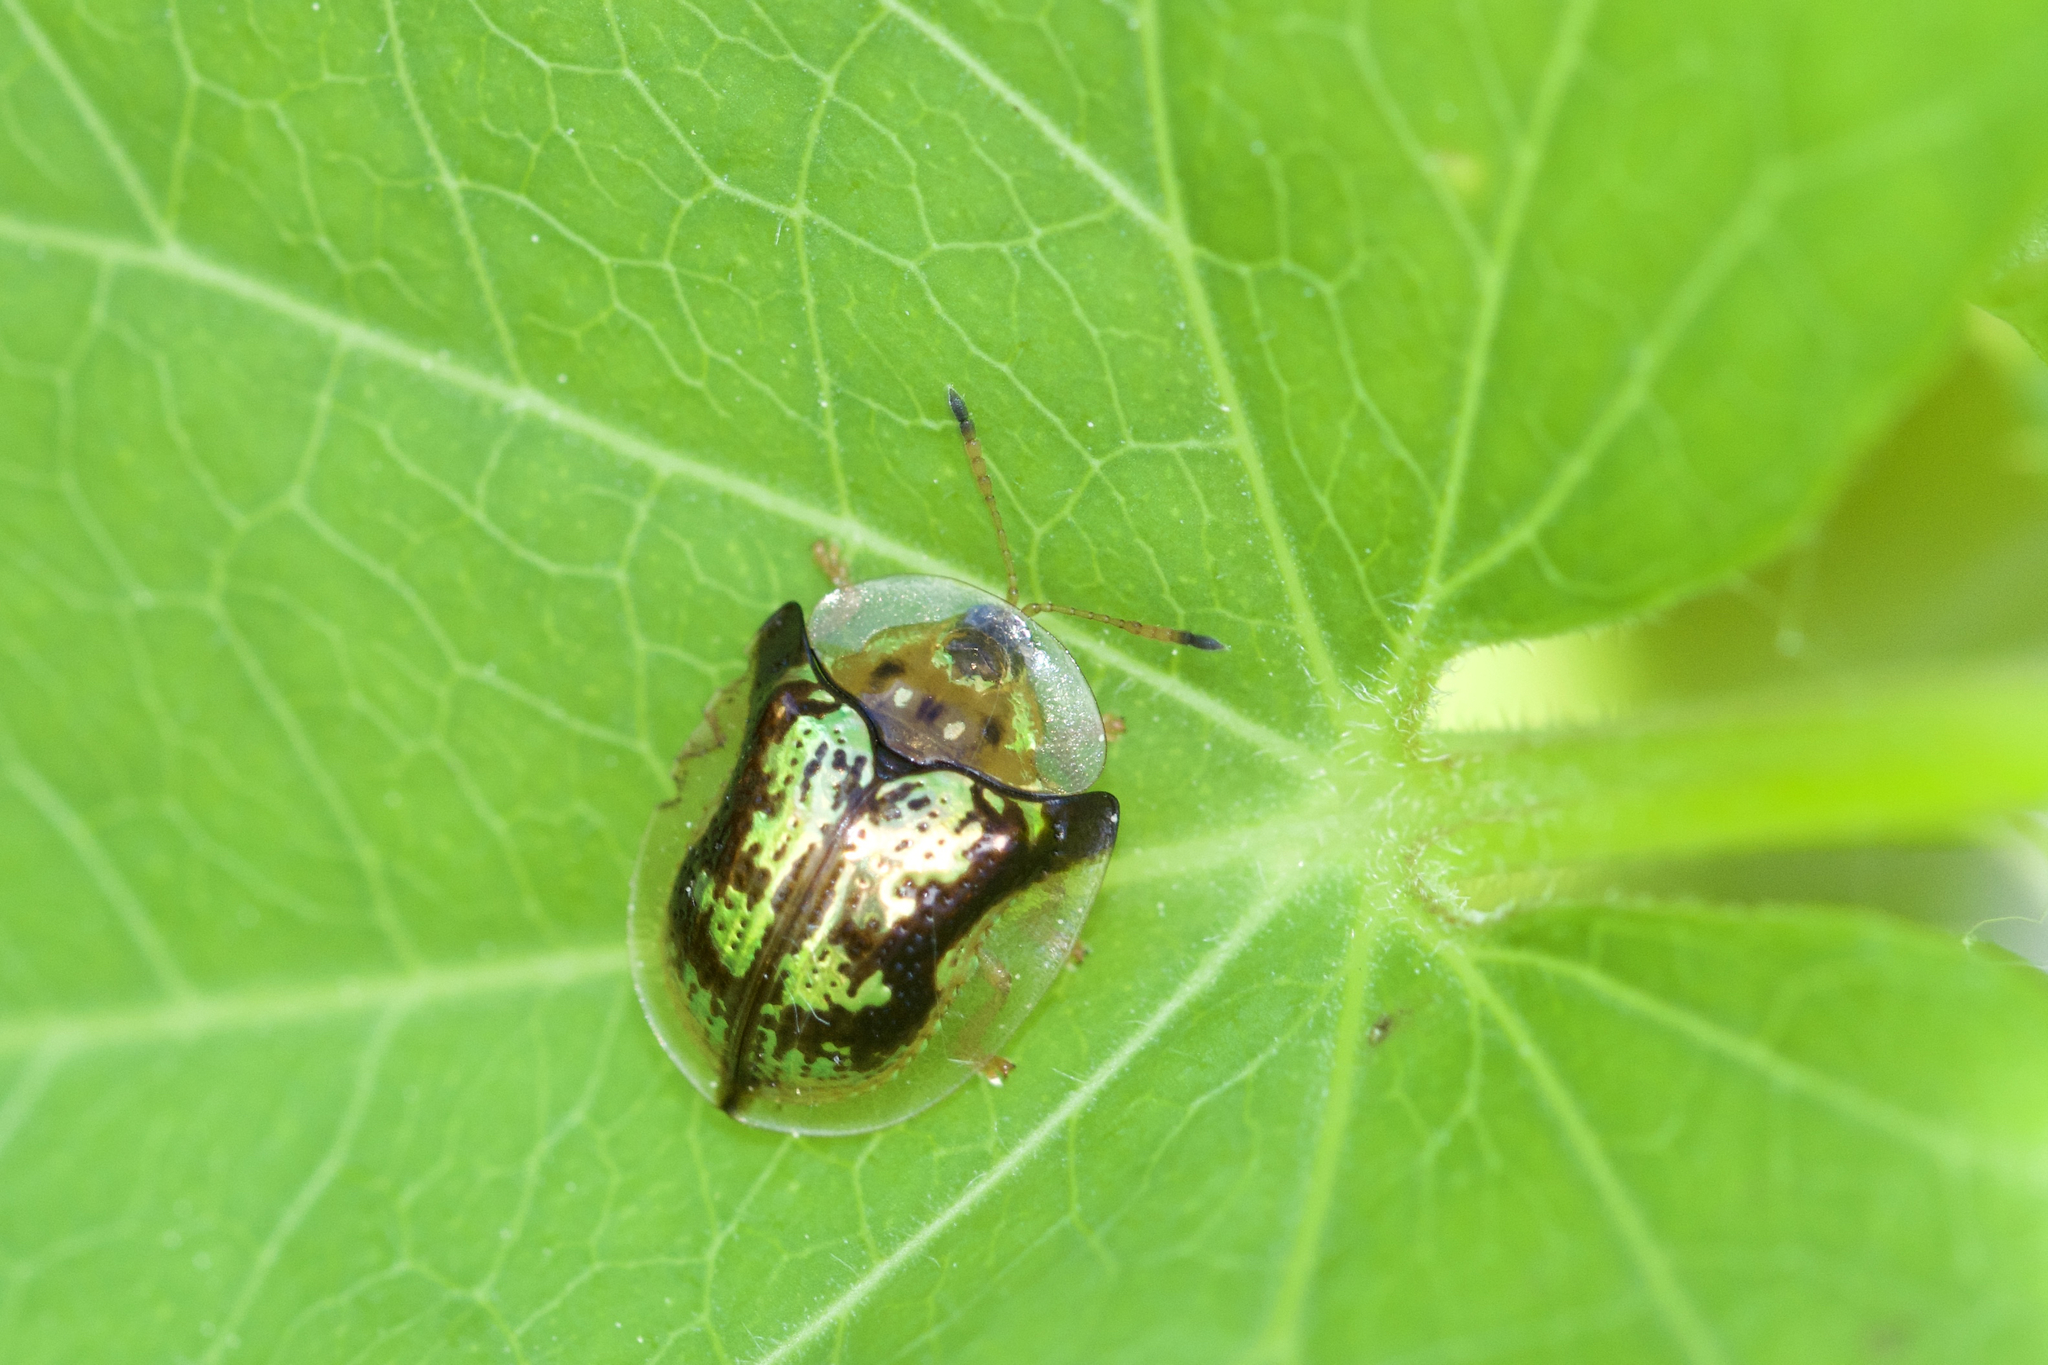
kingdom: Animalia
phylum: Arthropoda
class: Insecta
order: Coleoptera
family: Chrysomelidae
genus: Deloyala
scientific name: Deloyala guttata
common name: Mottled tortoise beetle
